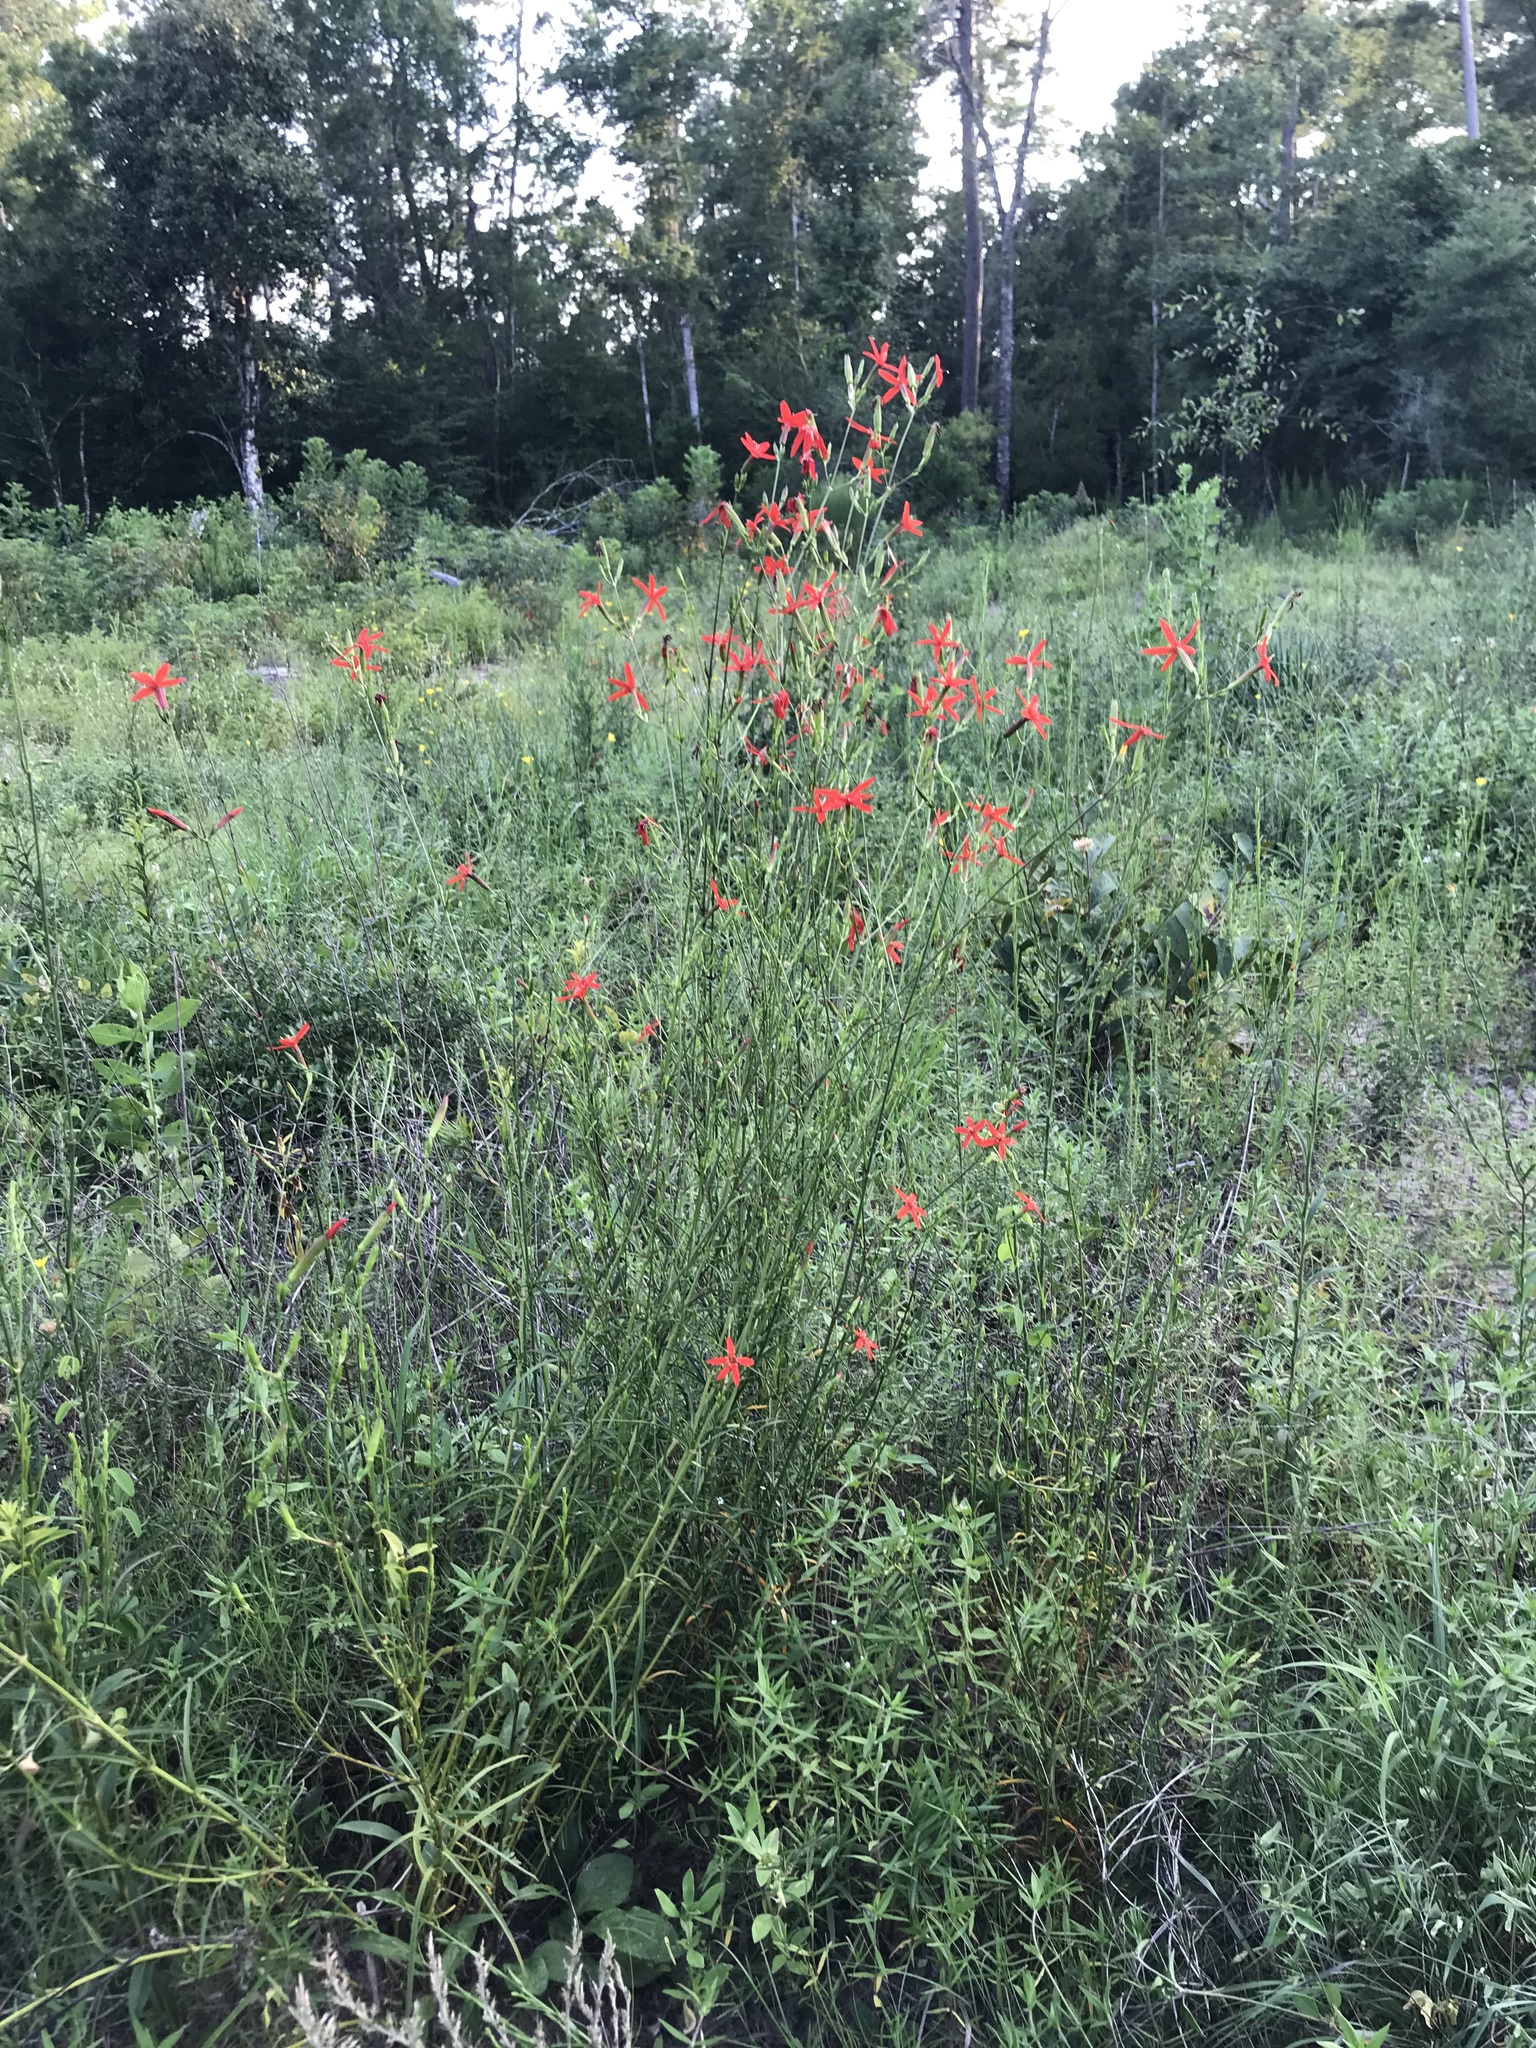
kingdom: Plantae
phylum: Tracheophyta
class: Magnoliopsida
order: Caryophyllales
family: Caryophyllaceae
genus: Silene
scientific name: Silene subciliata
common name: Prairie fire-pink
